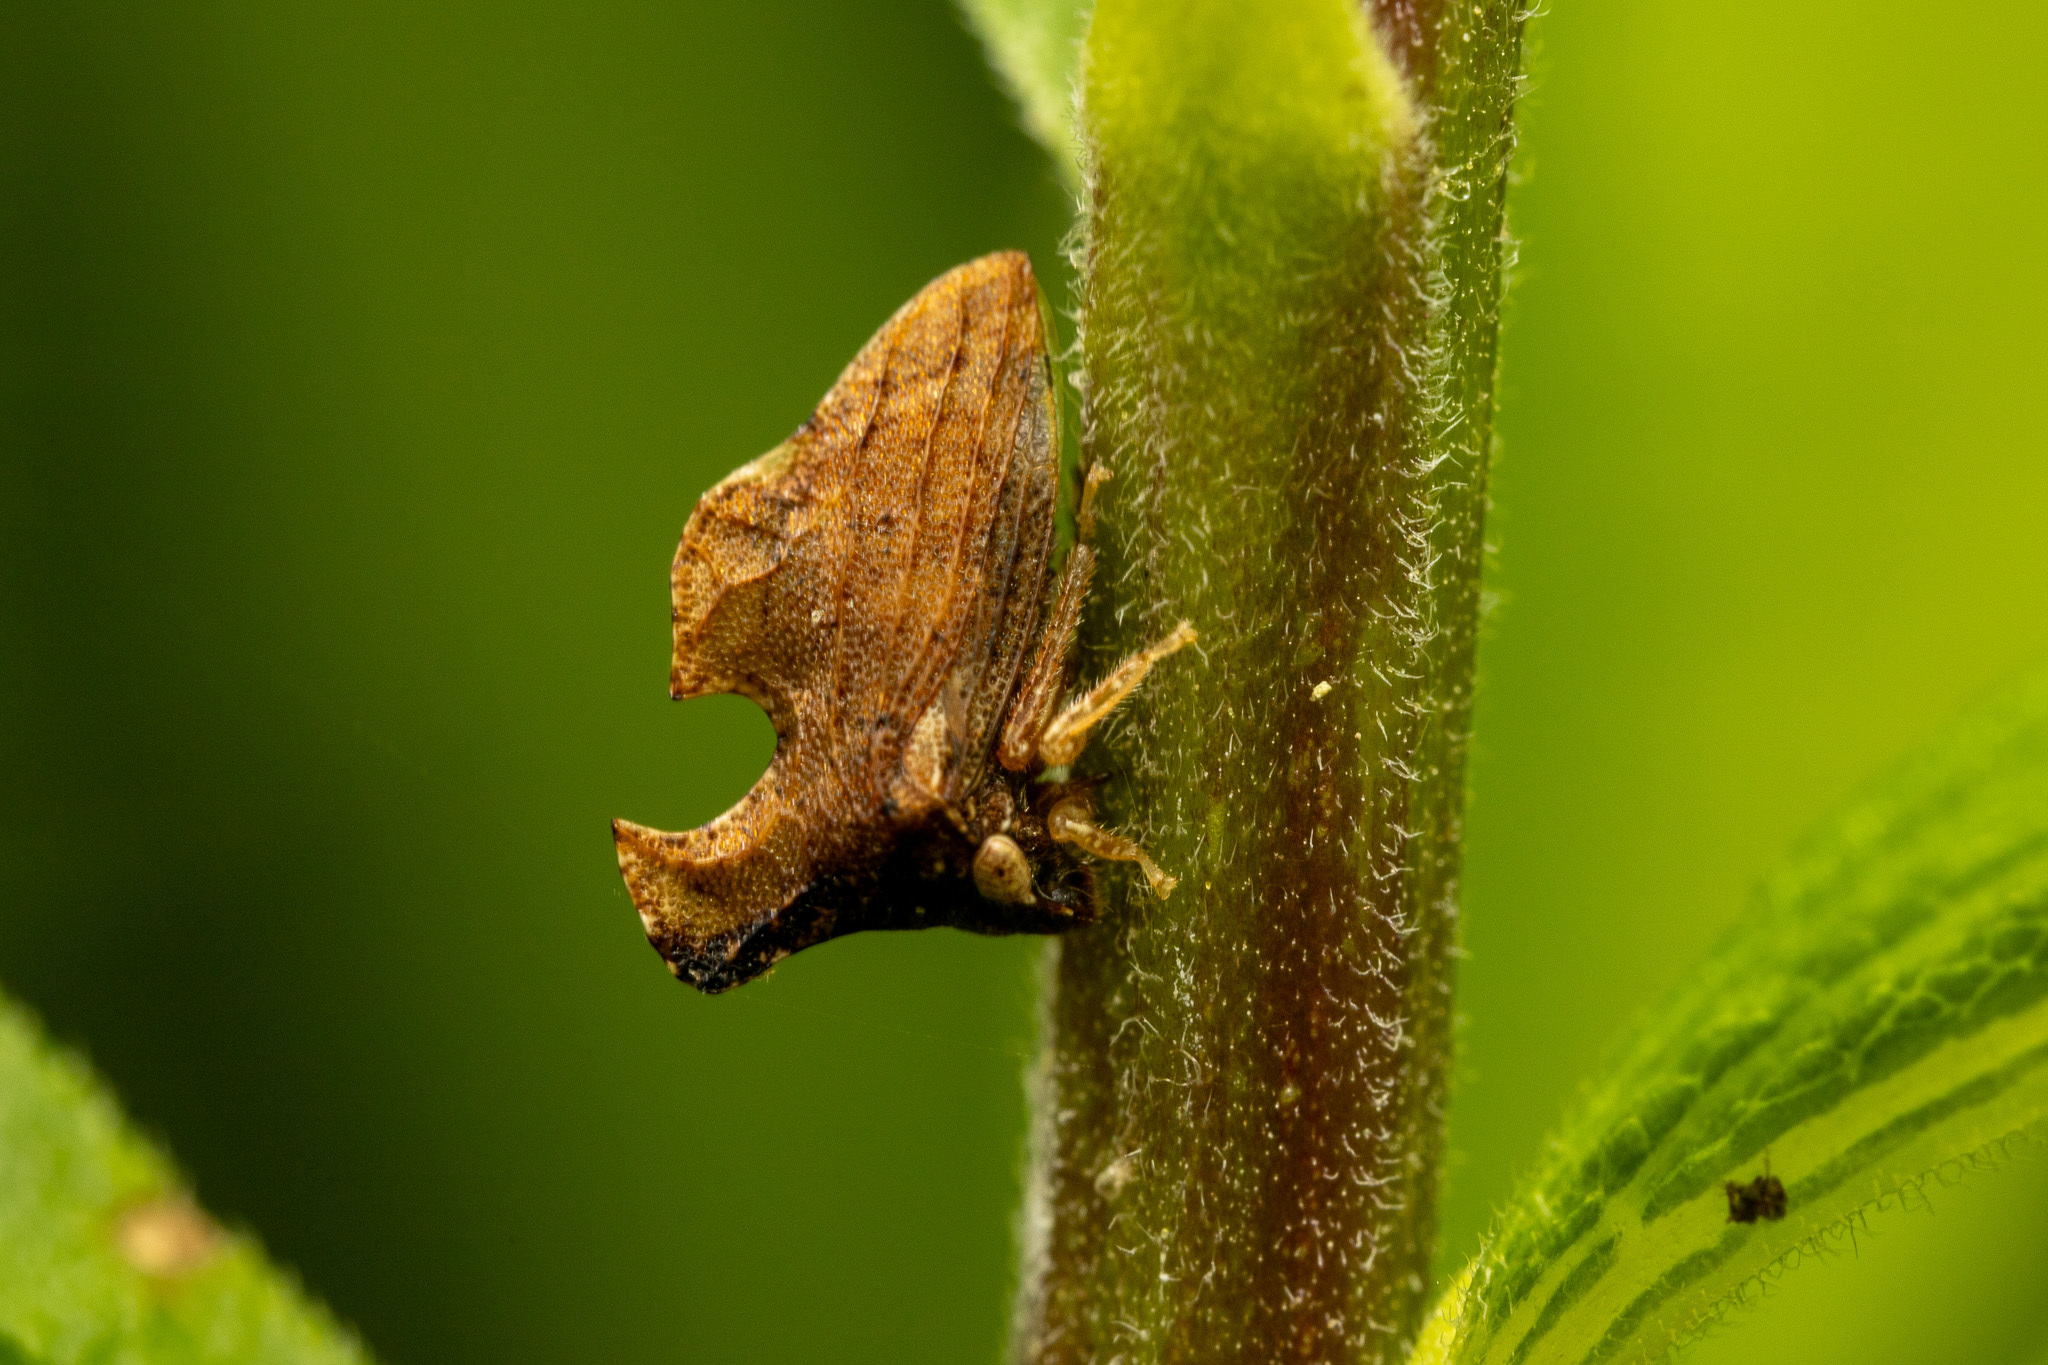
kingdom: Animalia
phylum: Arthropoda
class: Insecta
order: Hemiptera
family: Membracidae
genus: Entylia
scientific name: Entylia carinata
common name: Keeled treehopper
